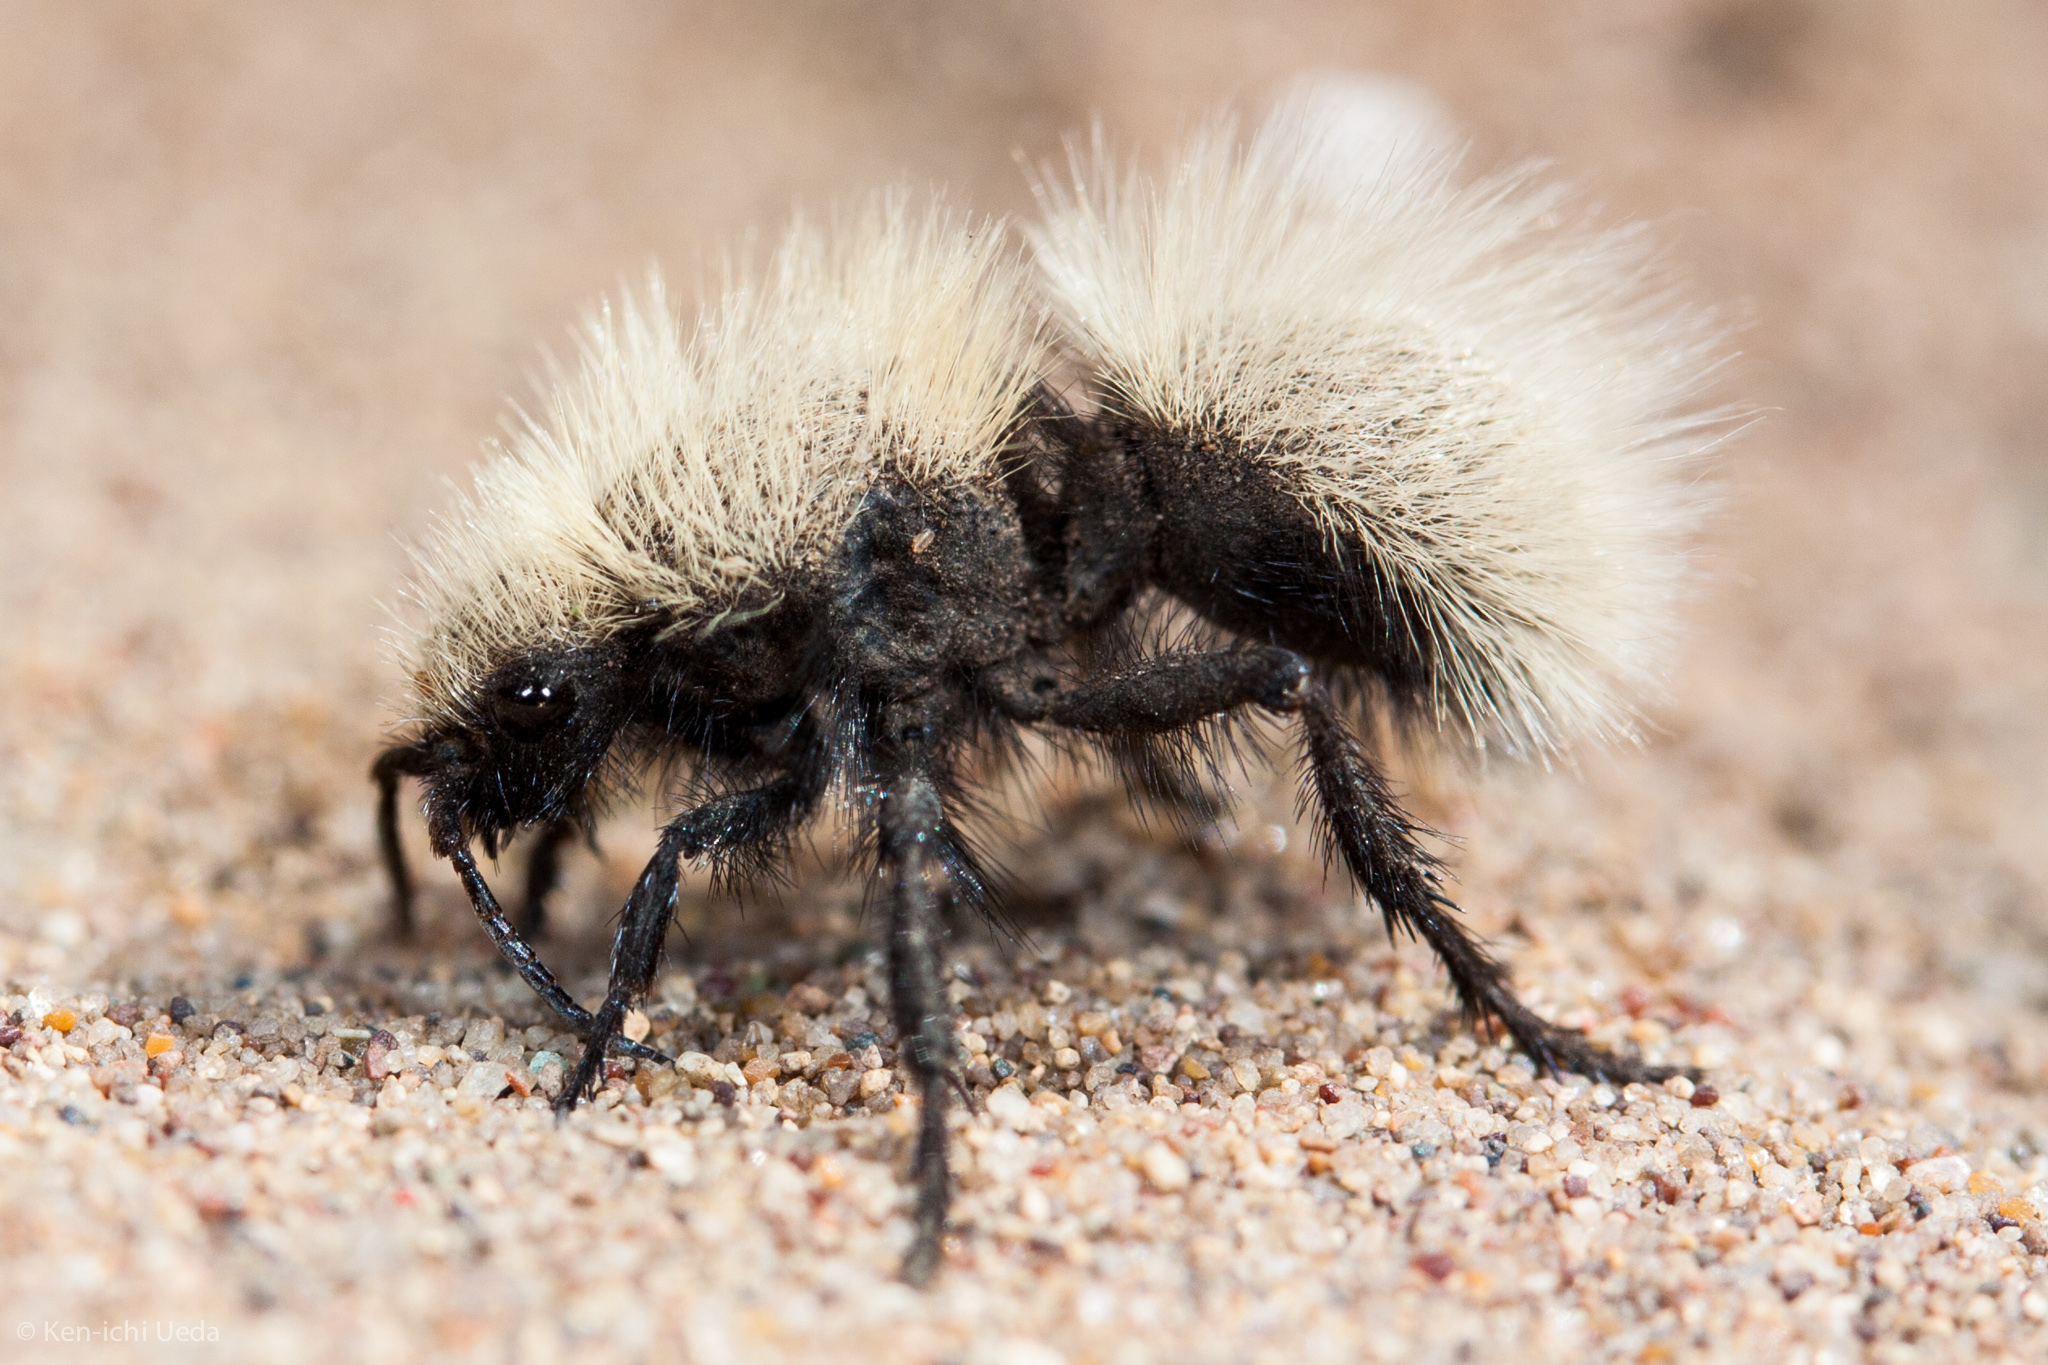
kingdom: Animalia
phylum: Arthropoda
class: Insecta
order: Hymenoptera
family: Mutillidae
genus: Dasymutilla
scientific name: Dasymutilla
